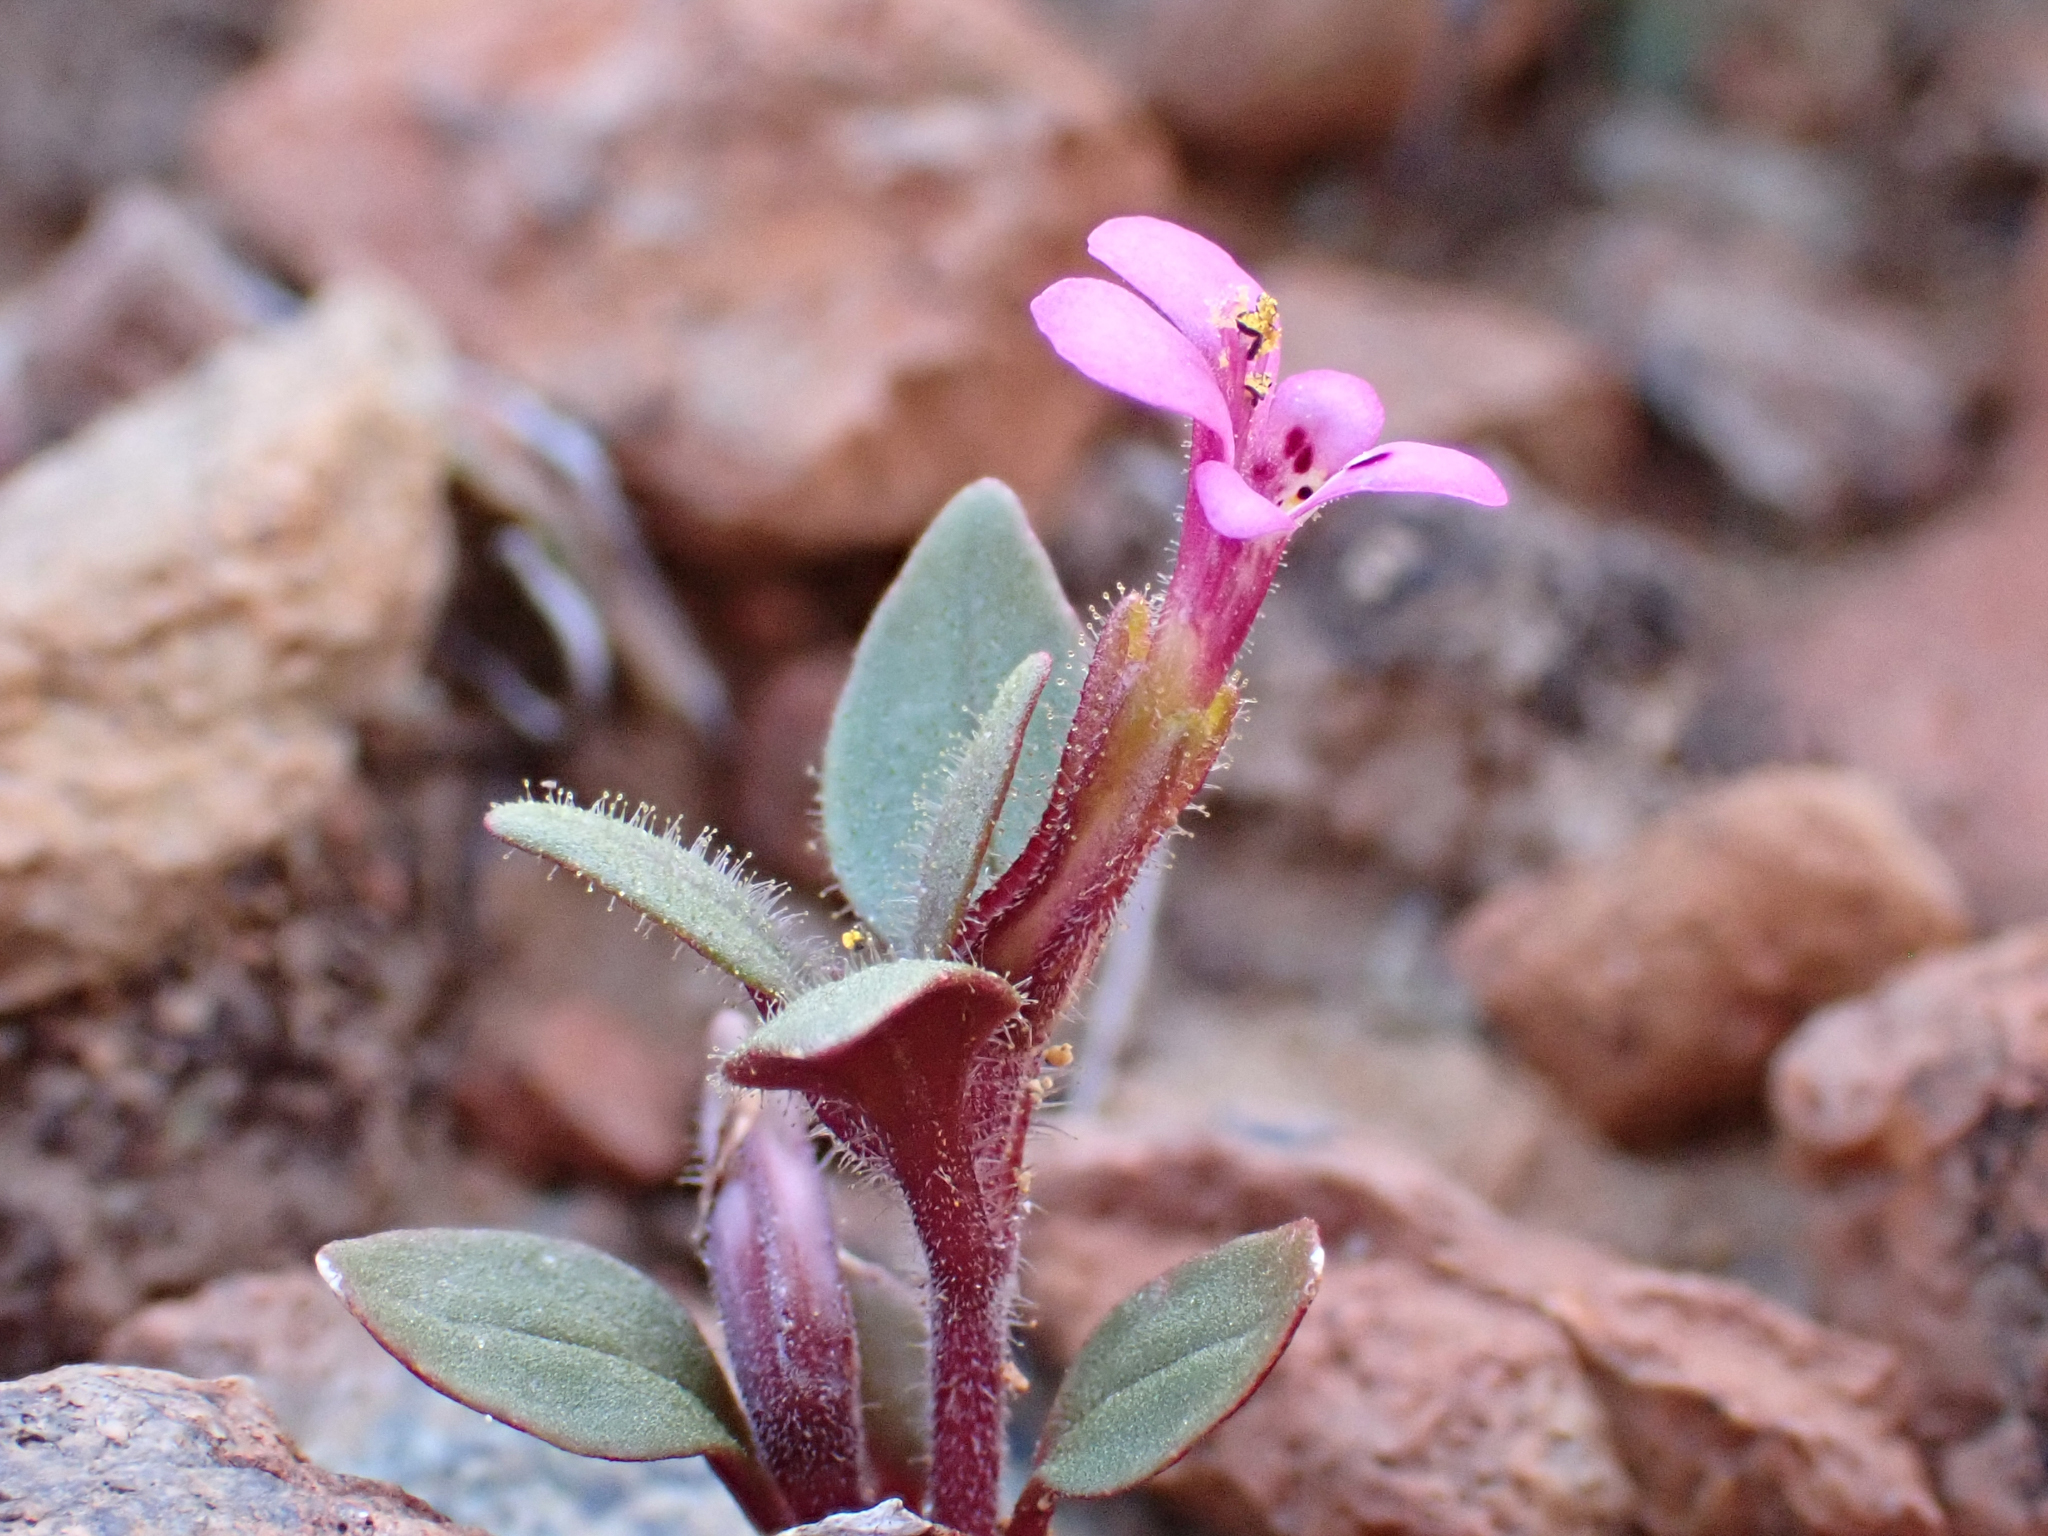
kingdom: Plantae
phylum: Tracheophyta
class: Magnoliopsida
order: Lamiales
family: Phrymaceae
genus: Diplacus
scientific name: Diplacus congdonii
